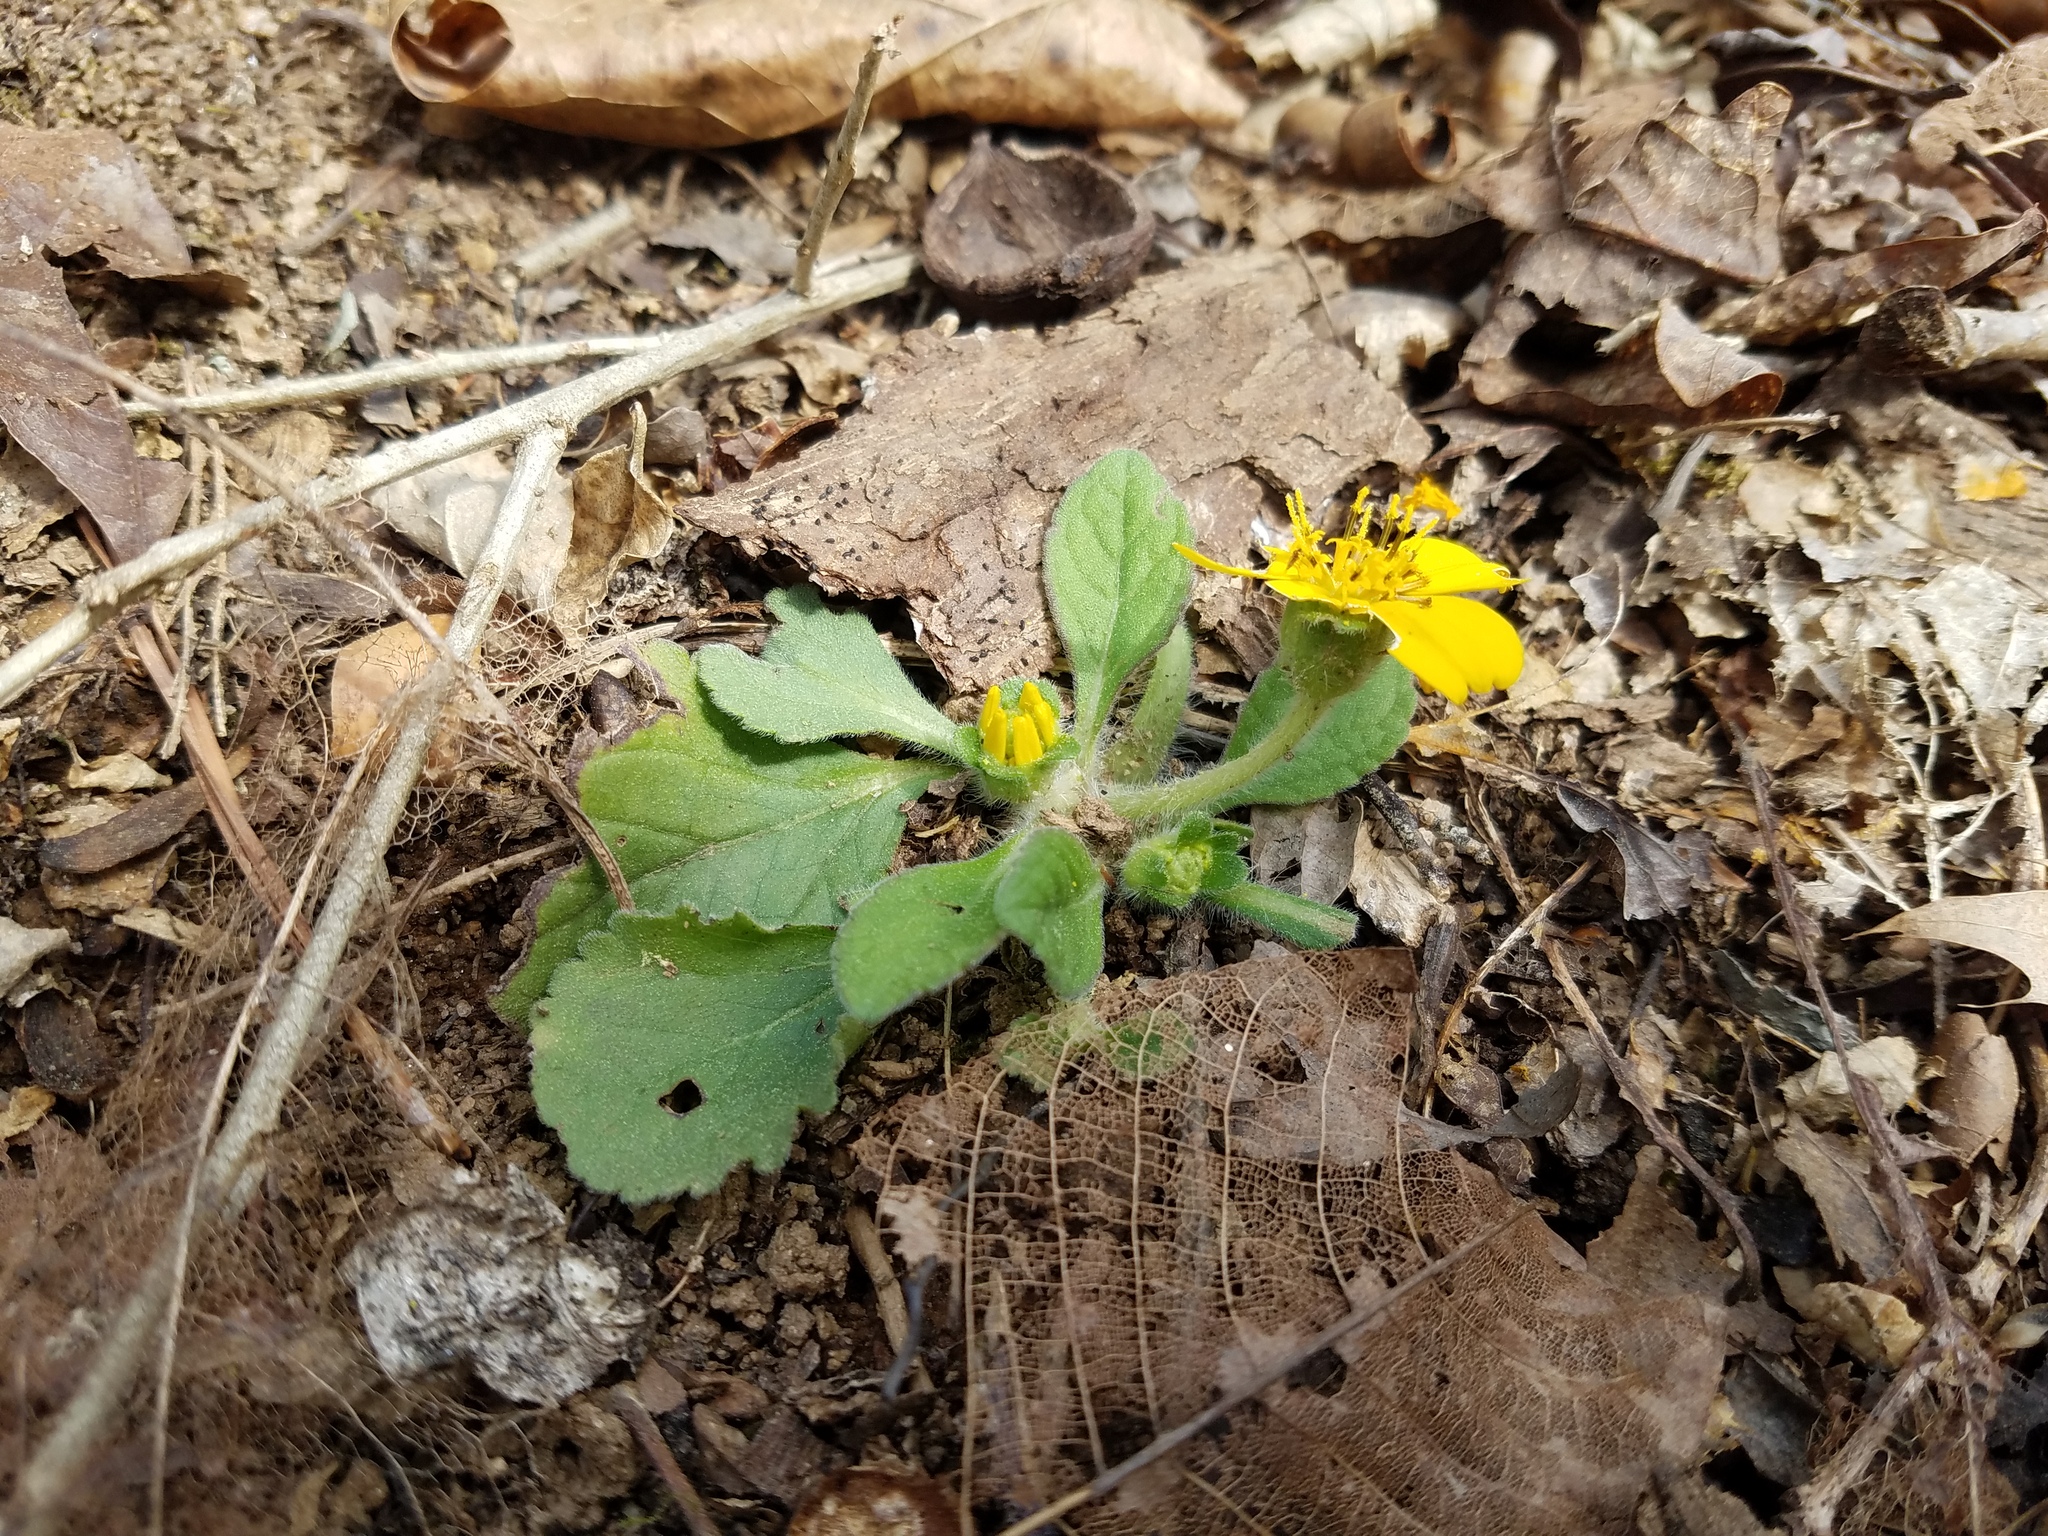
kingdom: Plantae
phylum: Tracheophyta
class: Magnoliopsida
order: Asterales
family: Asteraceae
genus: Chrysogonum
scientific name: Chrysogonum virginianum
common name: Golden-knee
